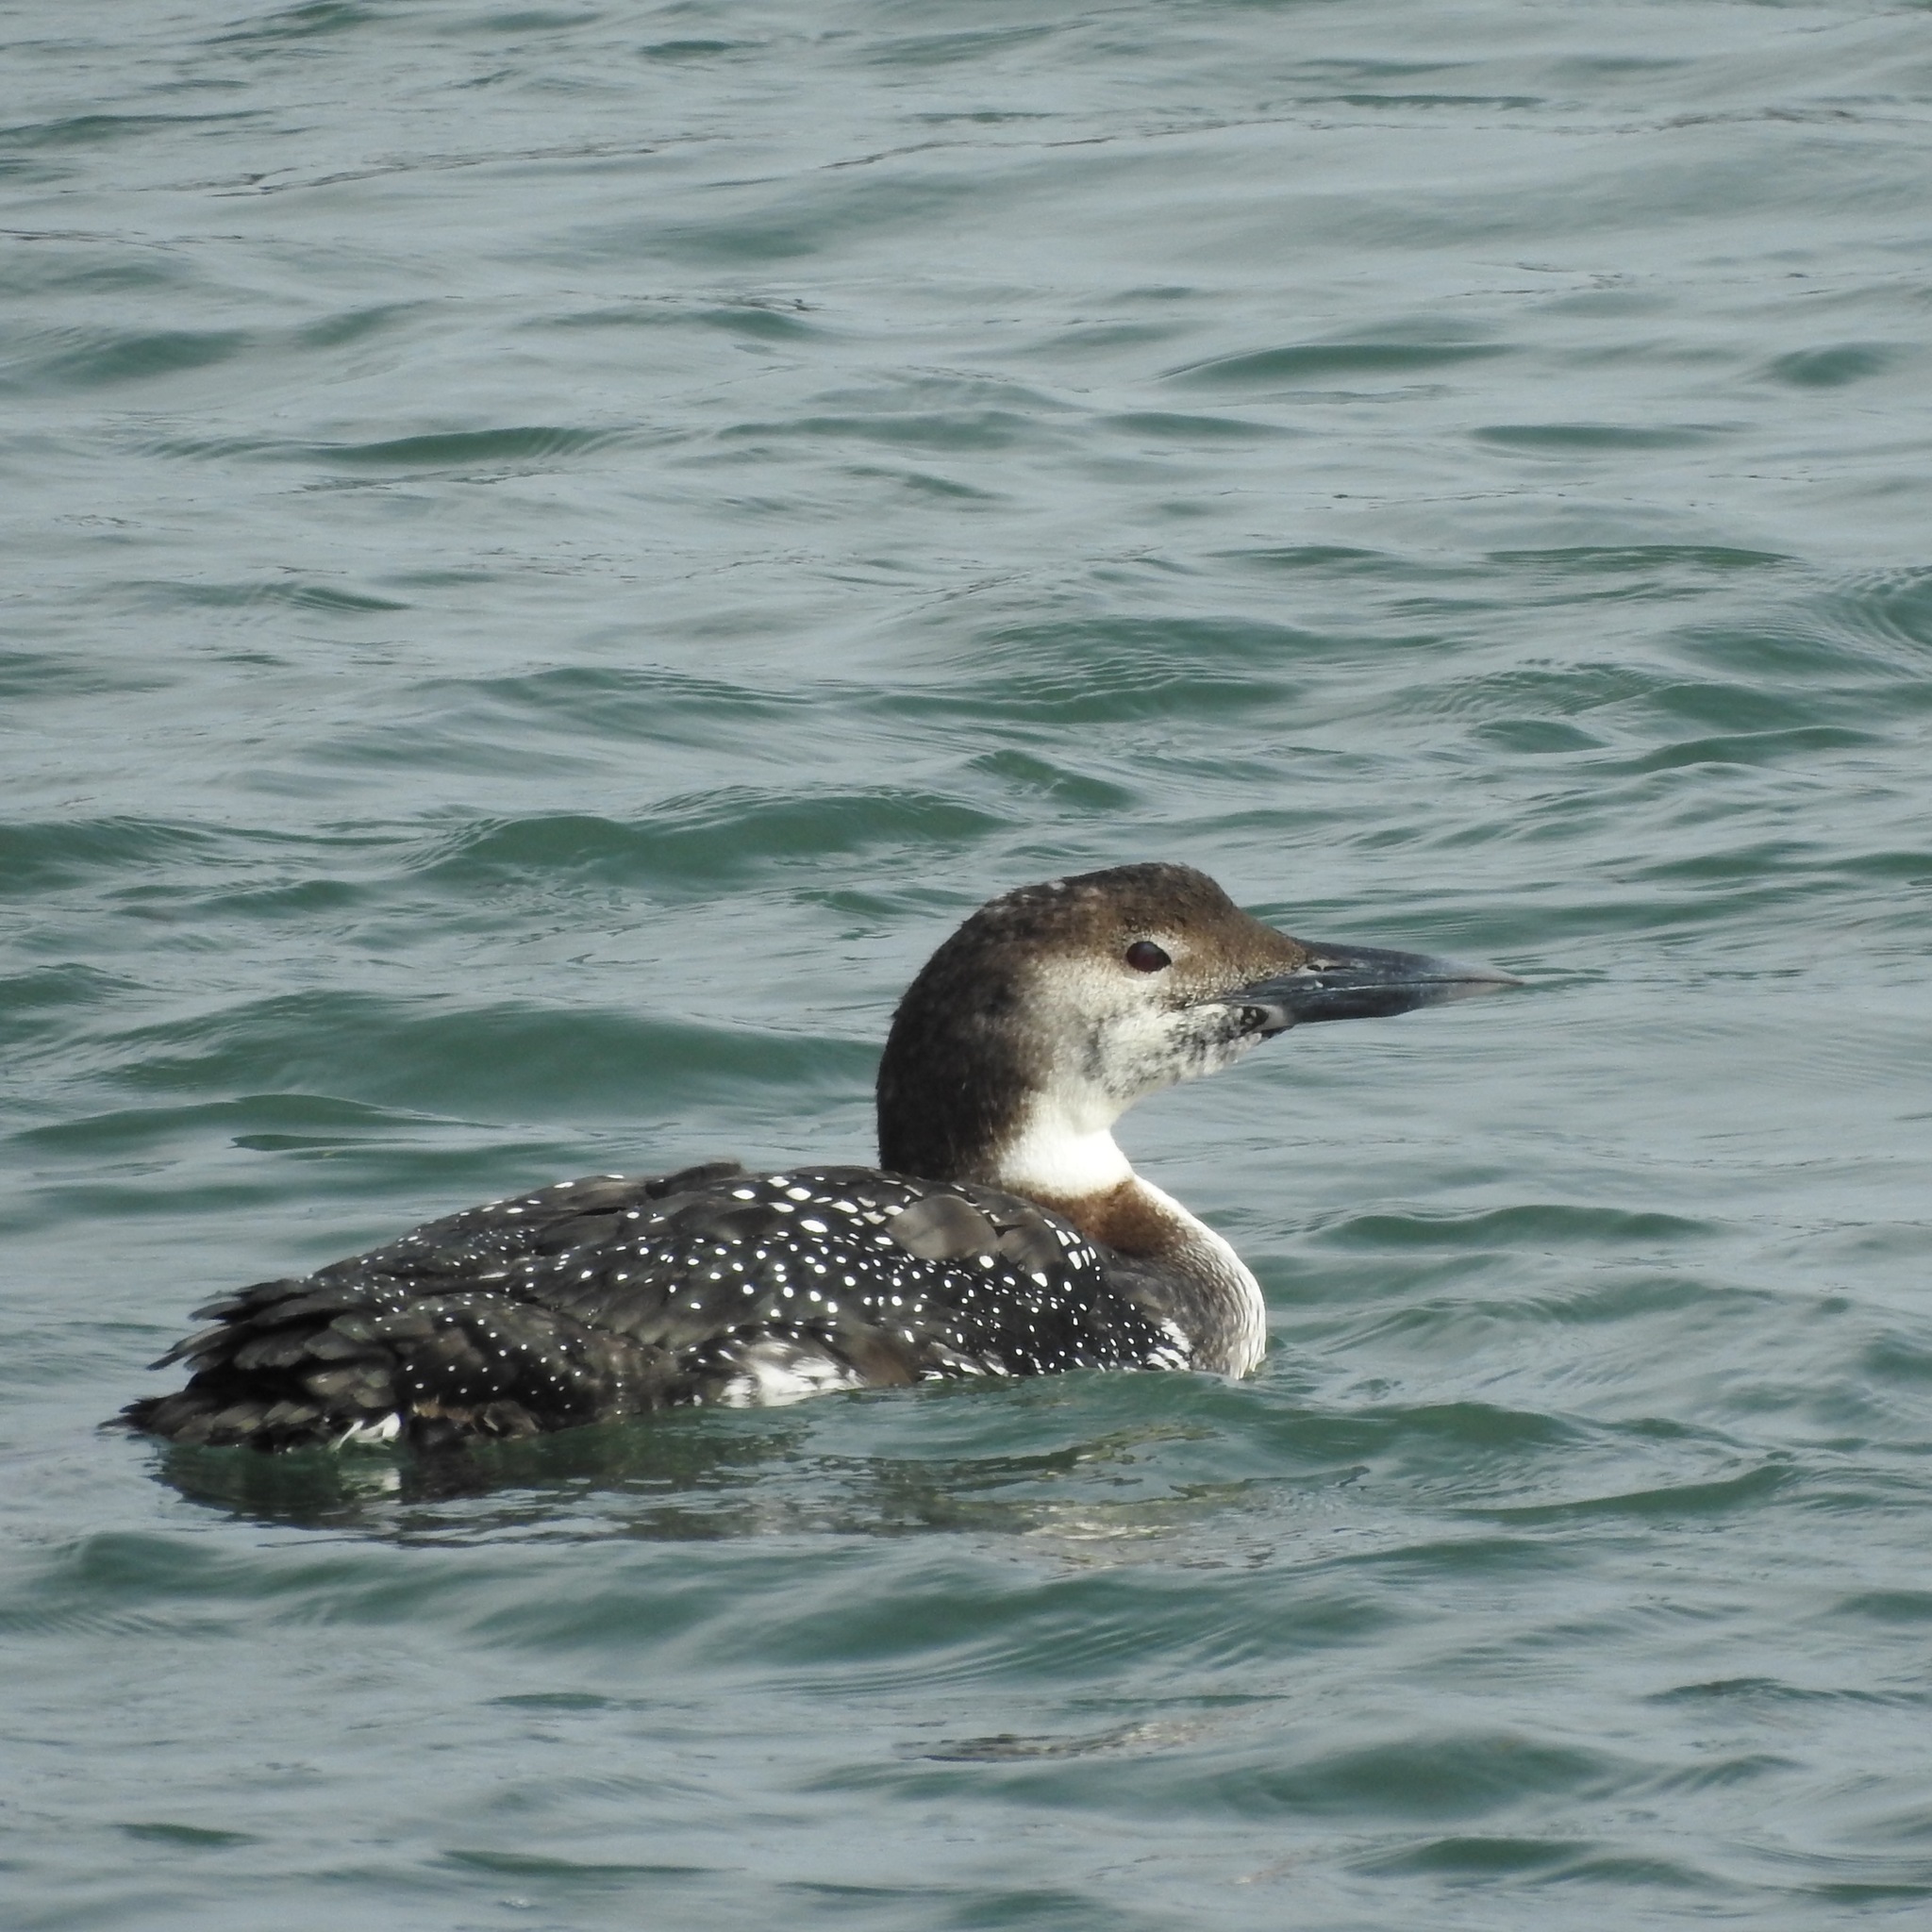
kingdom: Animalia
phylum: Chordata
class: Aves
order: Gaviiformes
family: Gaviidae
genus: Gavia
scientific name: Gavia immer
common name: Common loon
